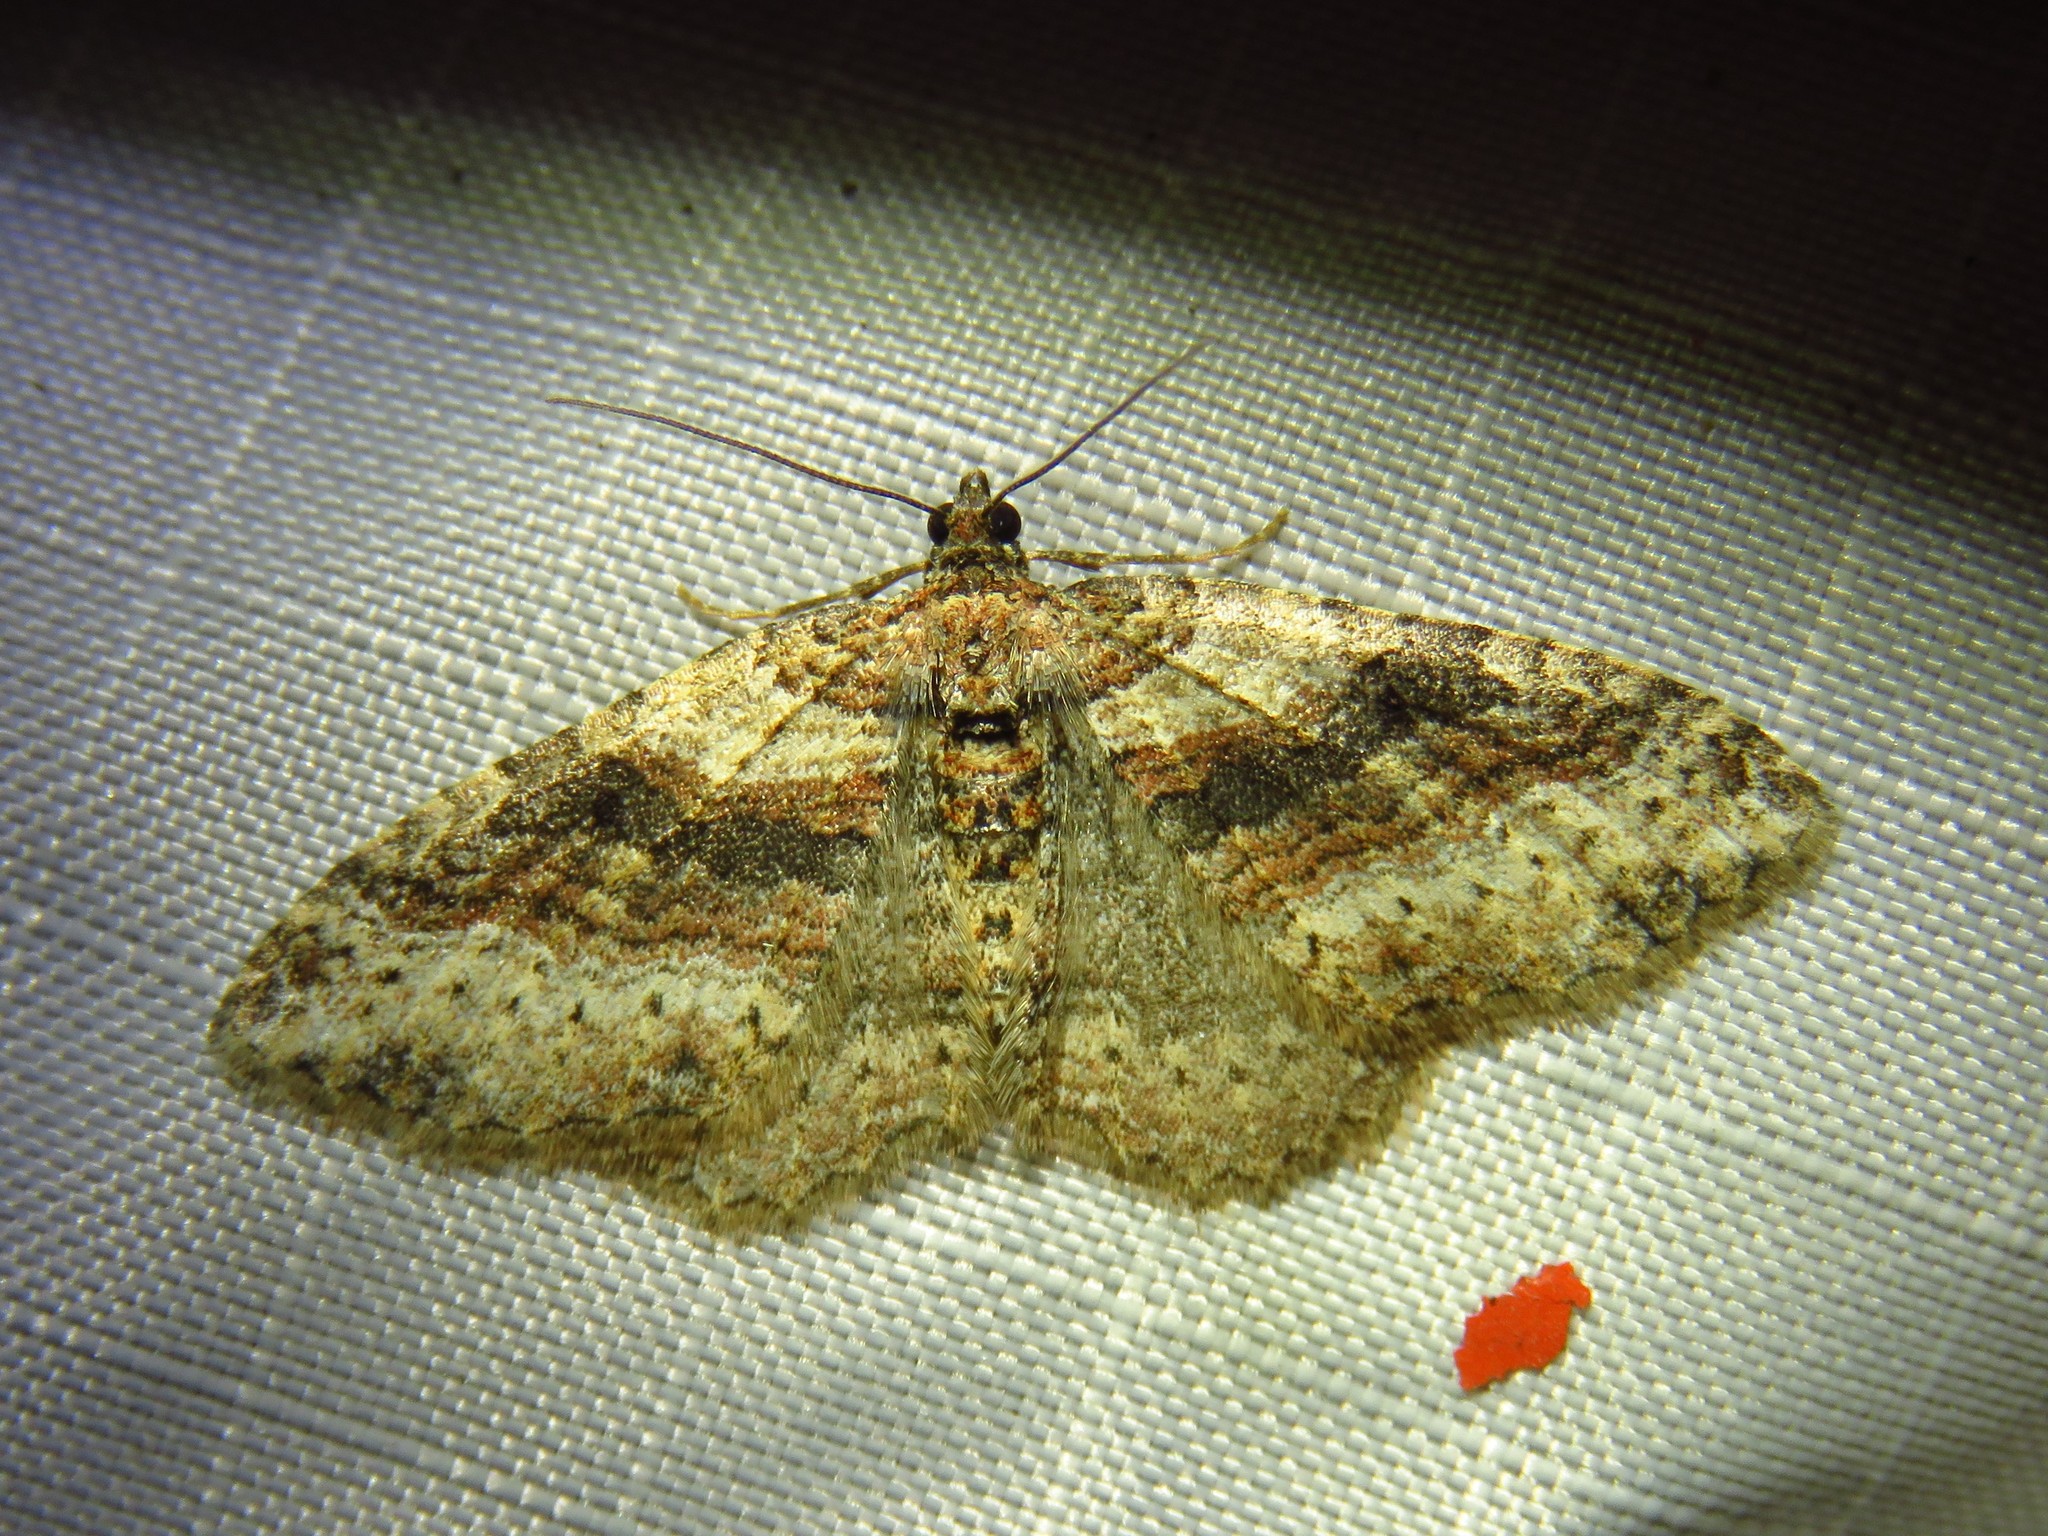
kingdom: Animalia
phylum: Arthropoda
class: Insecta
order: Lepidoptera
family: Geometridae
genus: Costaconvexa
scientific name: Costaconvexa centrostrigaria
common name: Bent-line carpet
